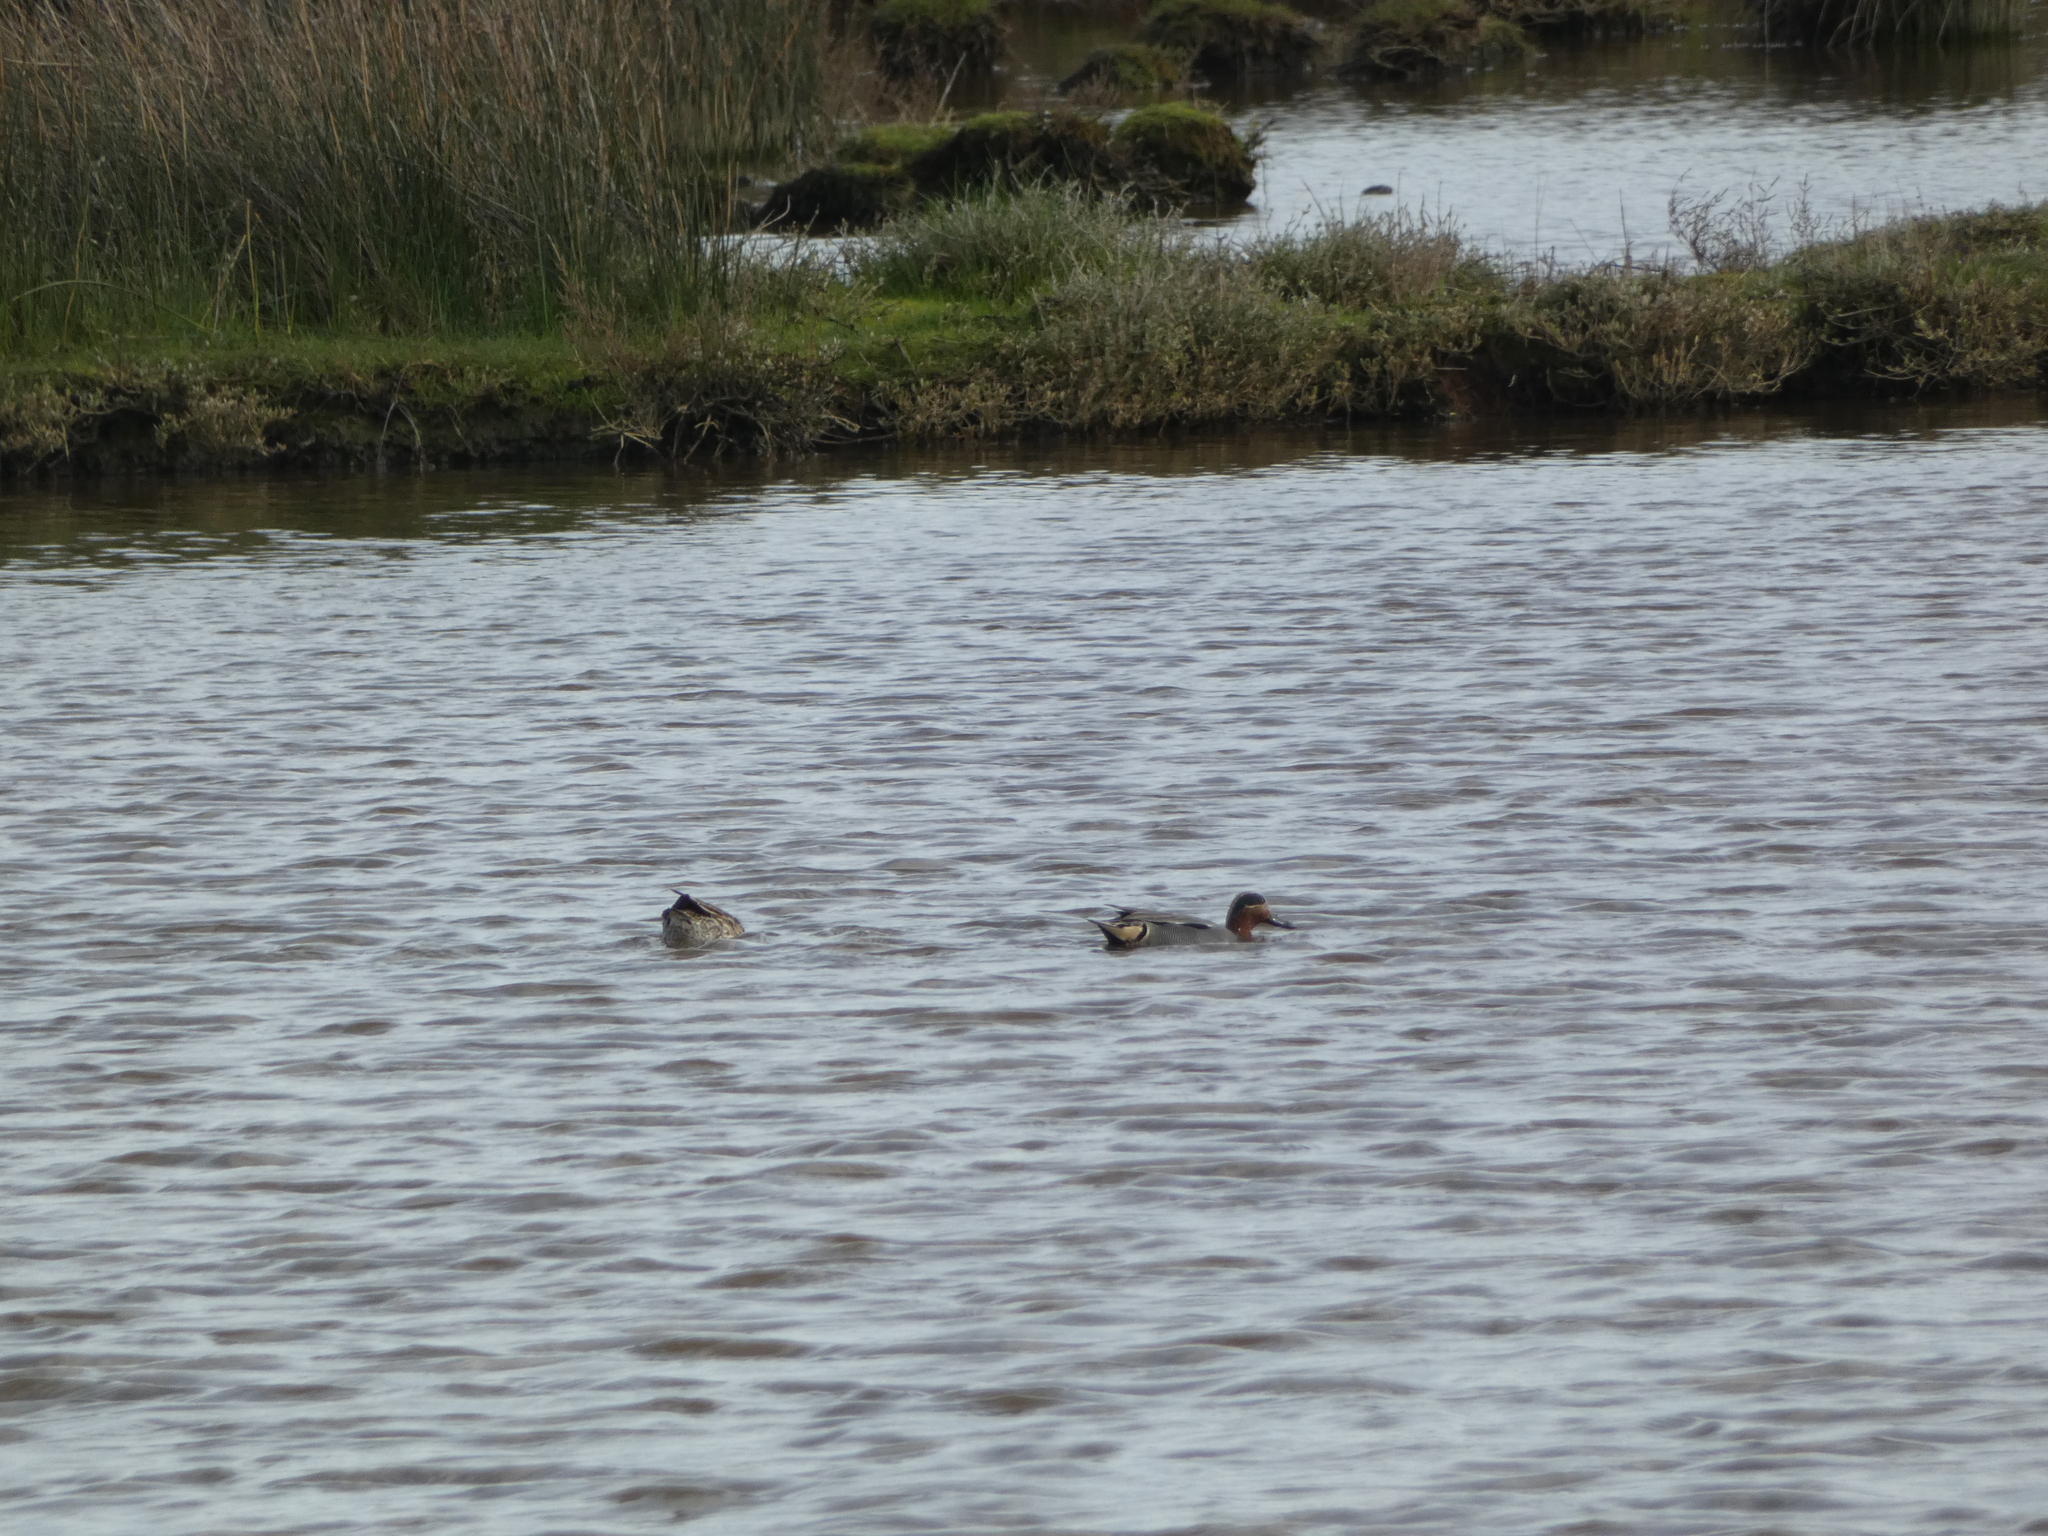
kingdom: Animalia
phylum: Chordata
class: Aves
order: Anseriformes
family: Anatidae
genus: Anas
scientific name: Anas crecca
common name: Eurasian teal
